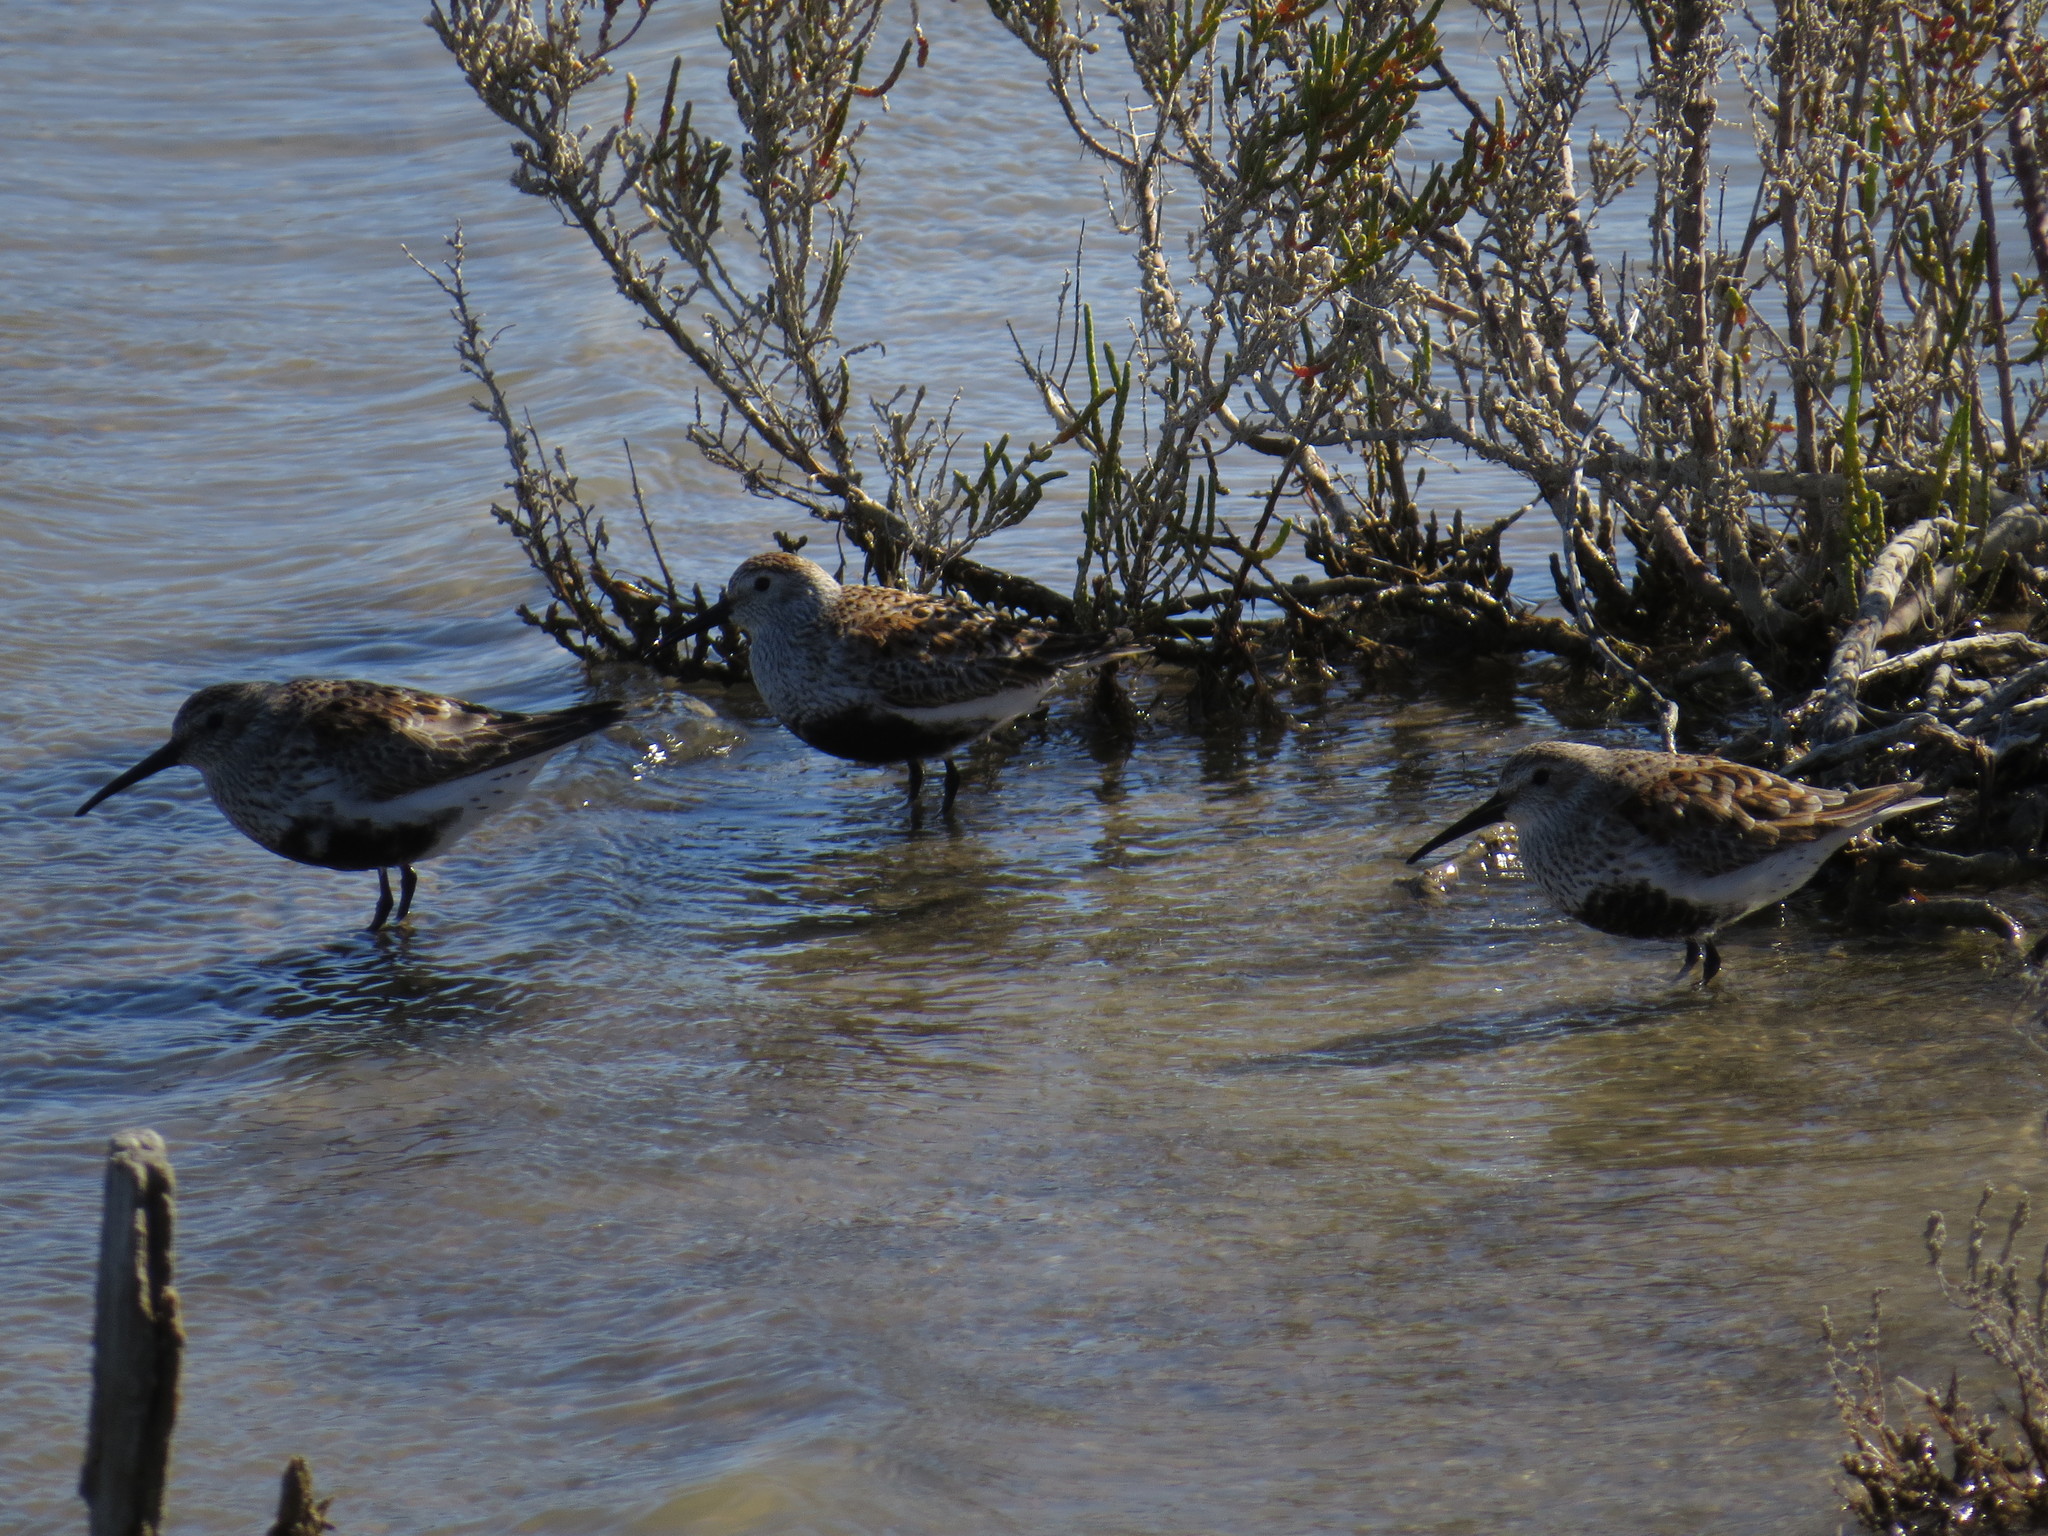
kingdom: Animalia
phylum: Chordata
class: Aves
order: Charadriiformes
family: Scolopacidae
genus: Calidris
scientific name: Calidris alpina
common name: Dunlin
